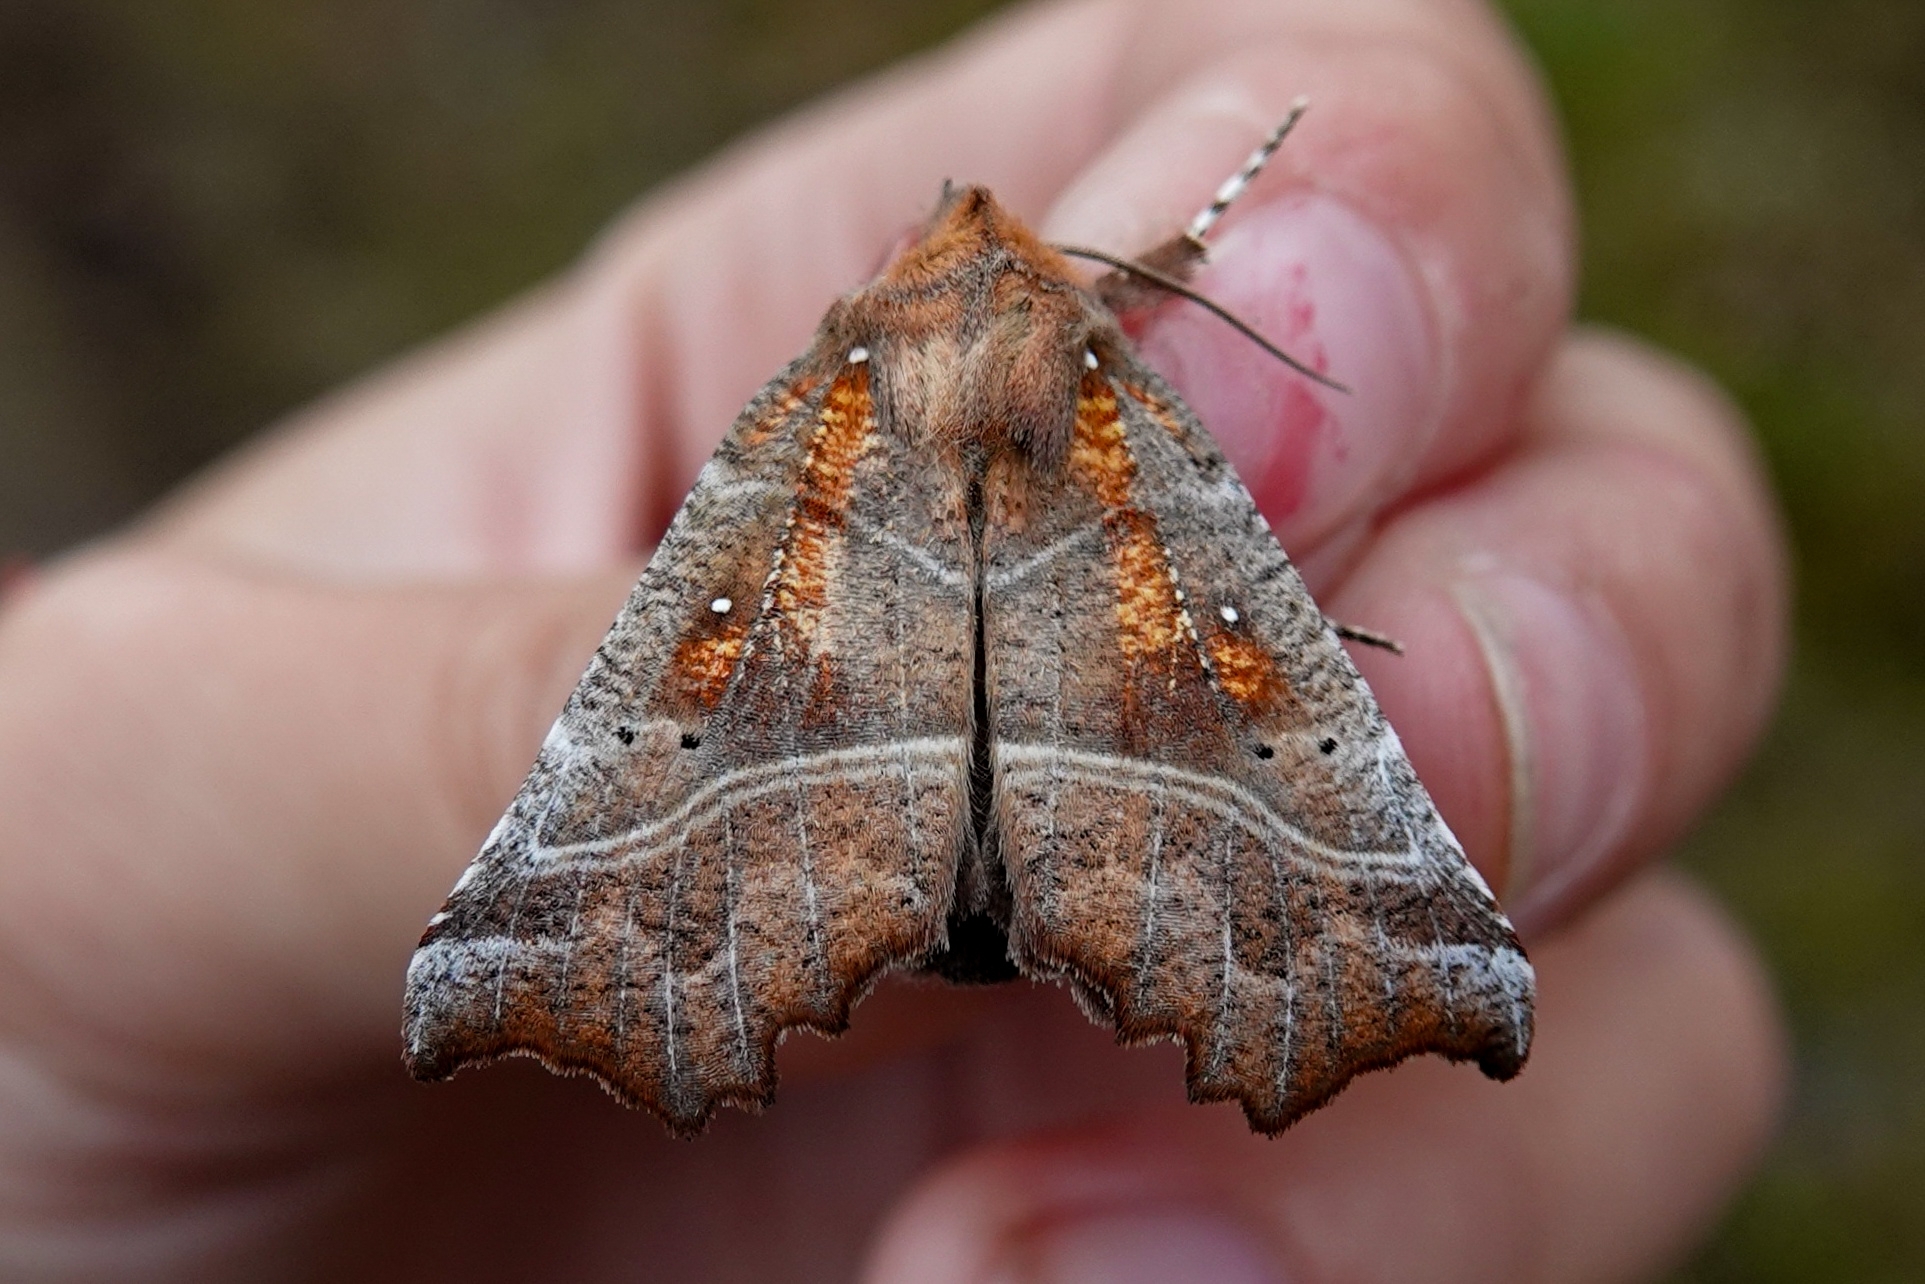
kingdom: Animalia
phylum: Arthropoda
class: Insecta
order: Lepidoptera
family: Erebidae
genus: Scoliopteryx
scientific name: Scoliopteryx libatrix
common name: Herald
